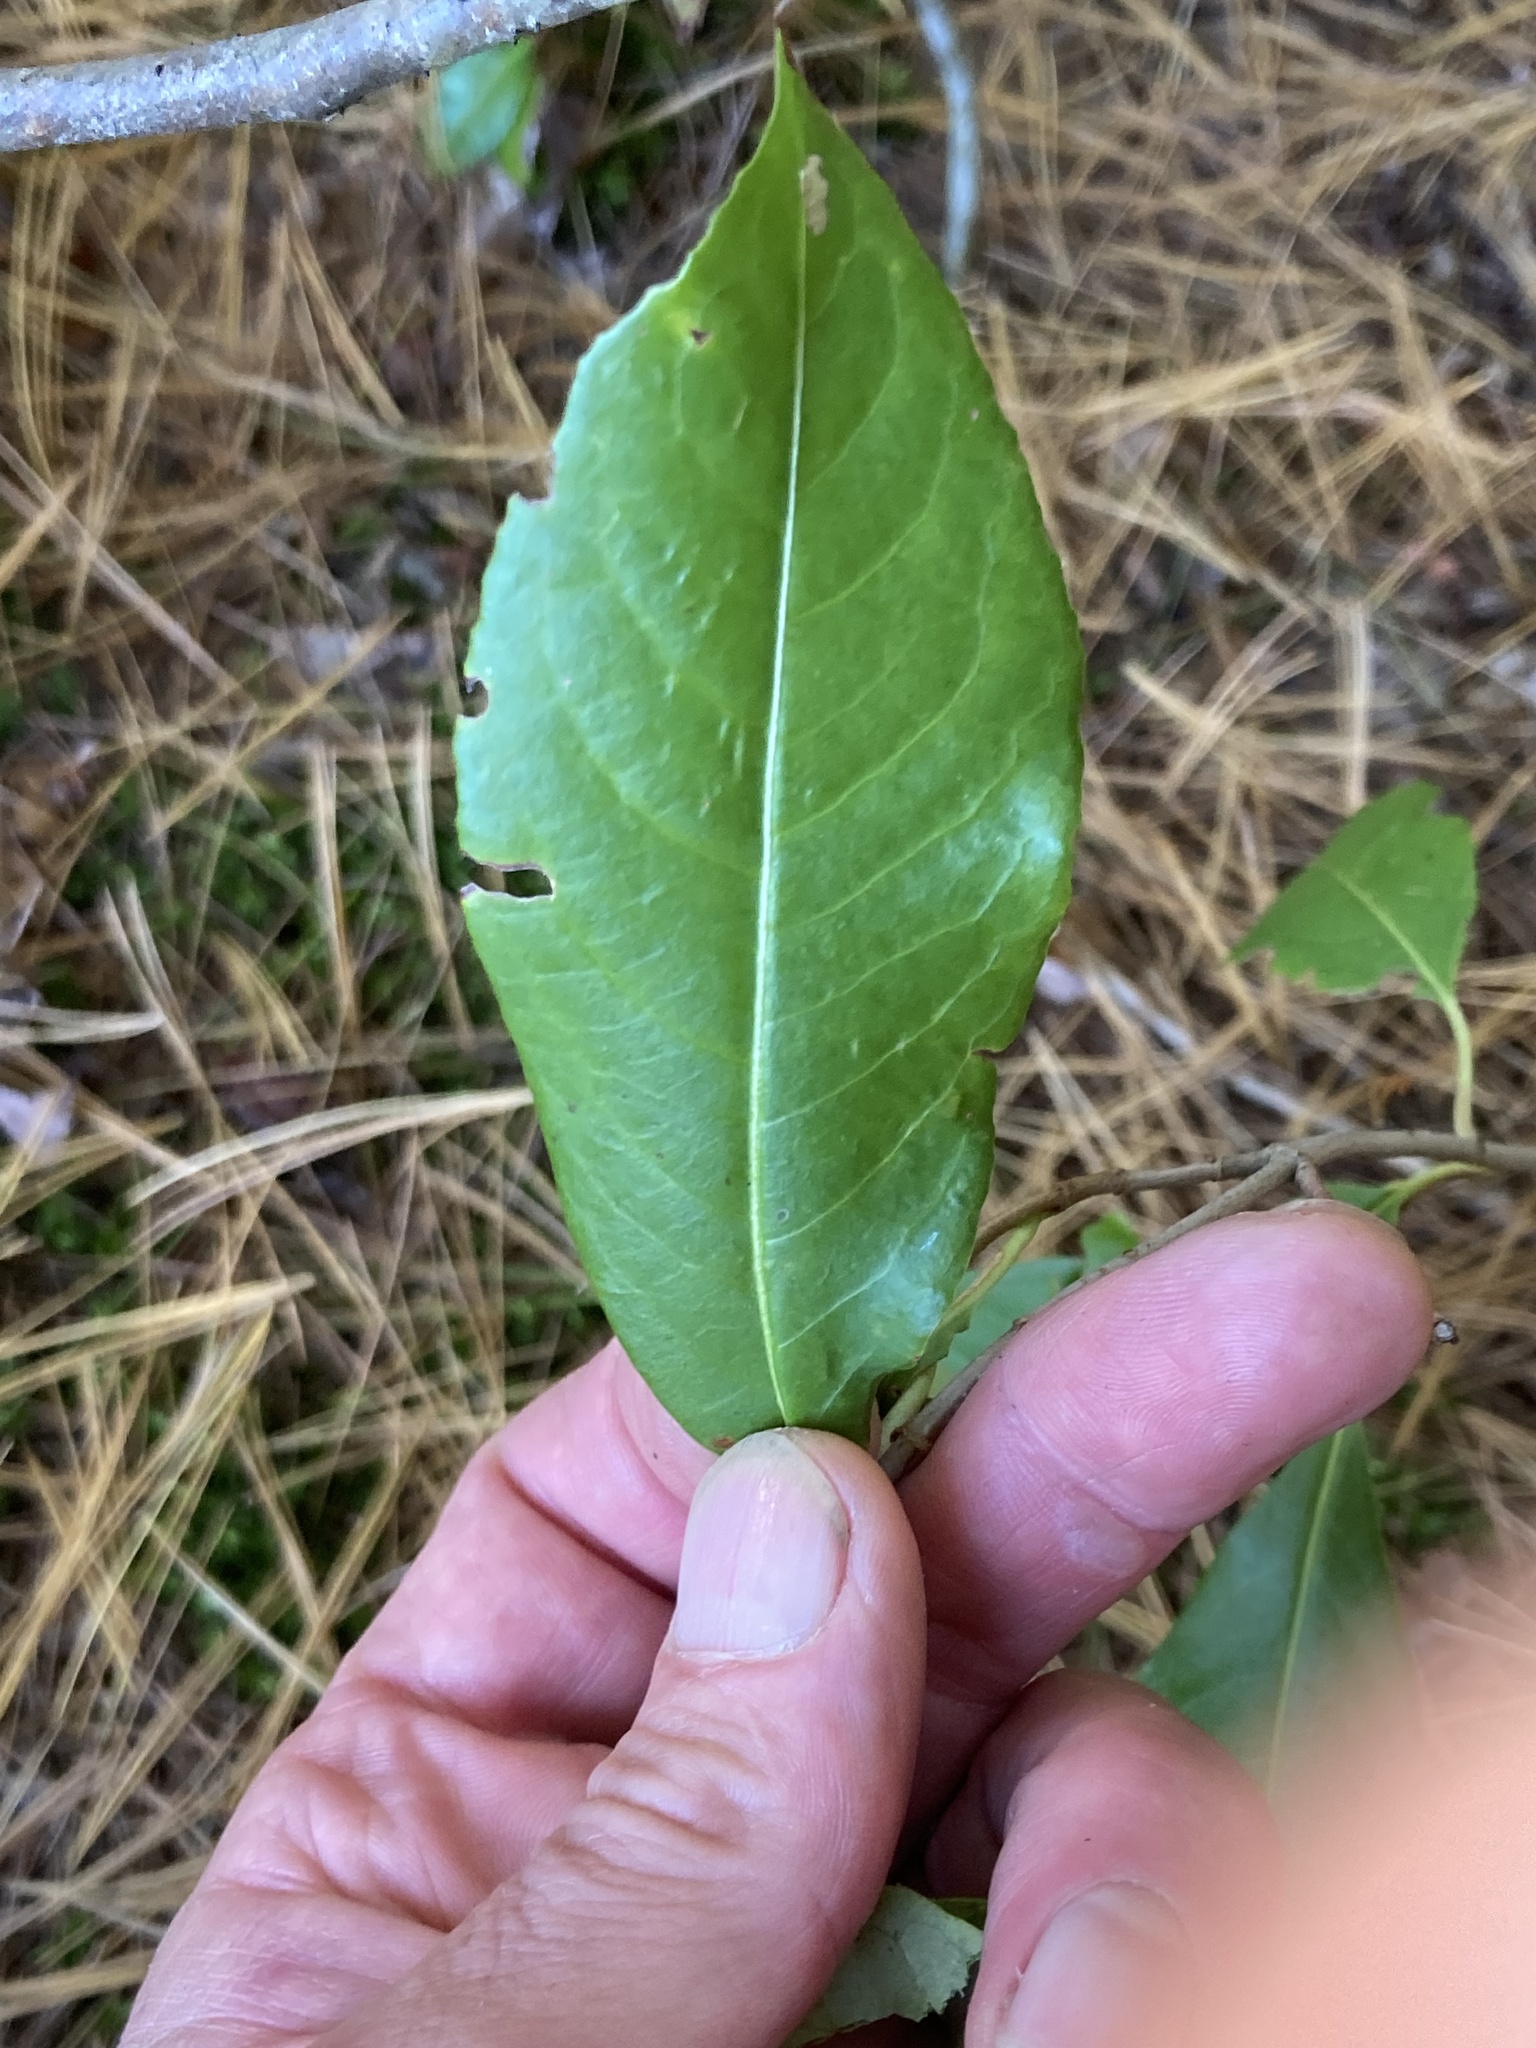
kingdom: Plantae
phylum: Tracheophyta
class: Magnoliopsida
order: Dipsacales
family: Viburnaceae
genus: Viburnum
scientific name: Viburnum cassinoides
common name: Swamp haw
